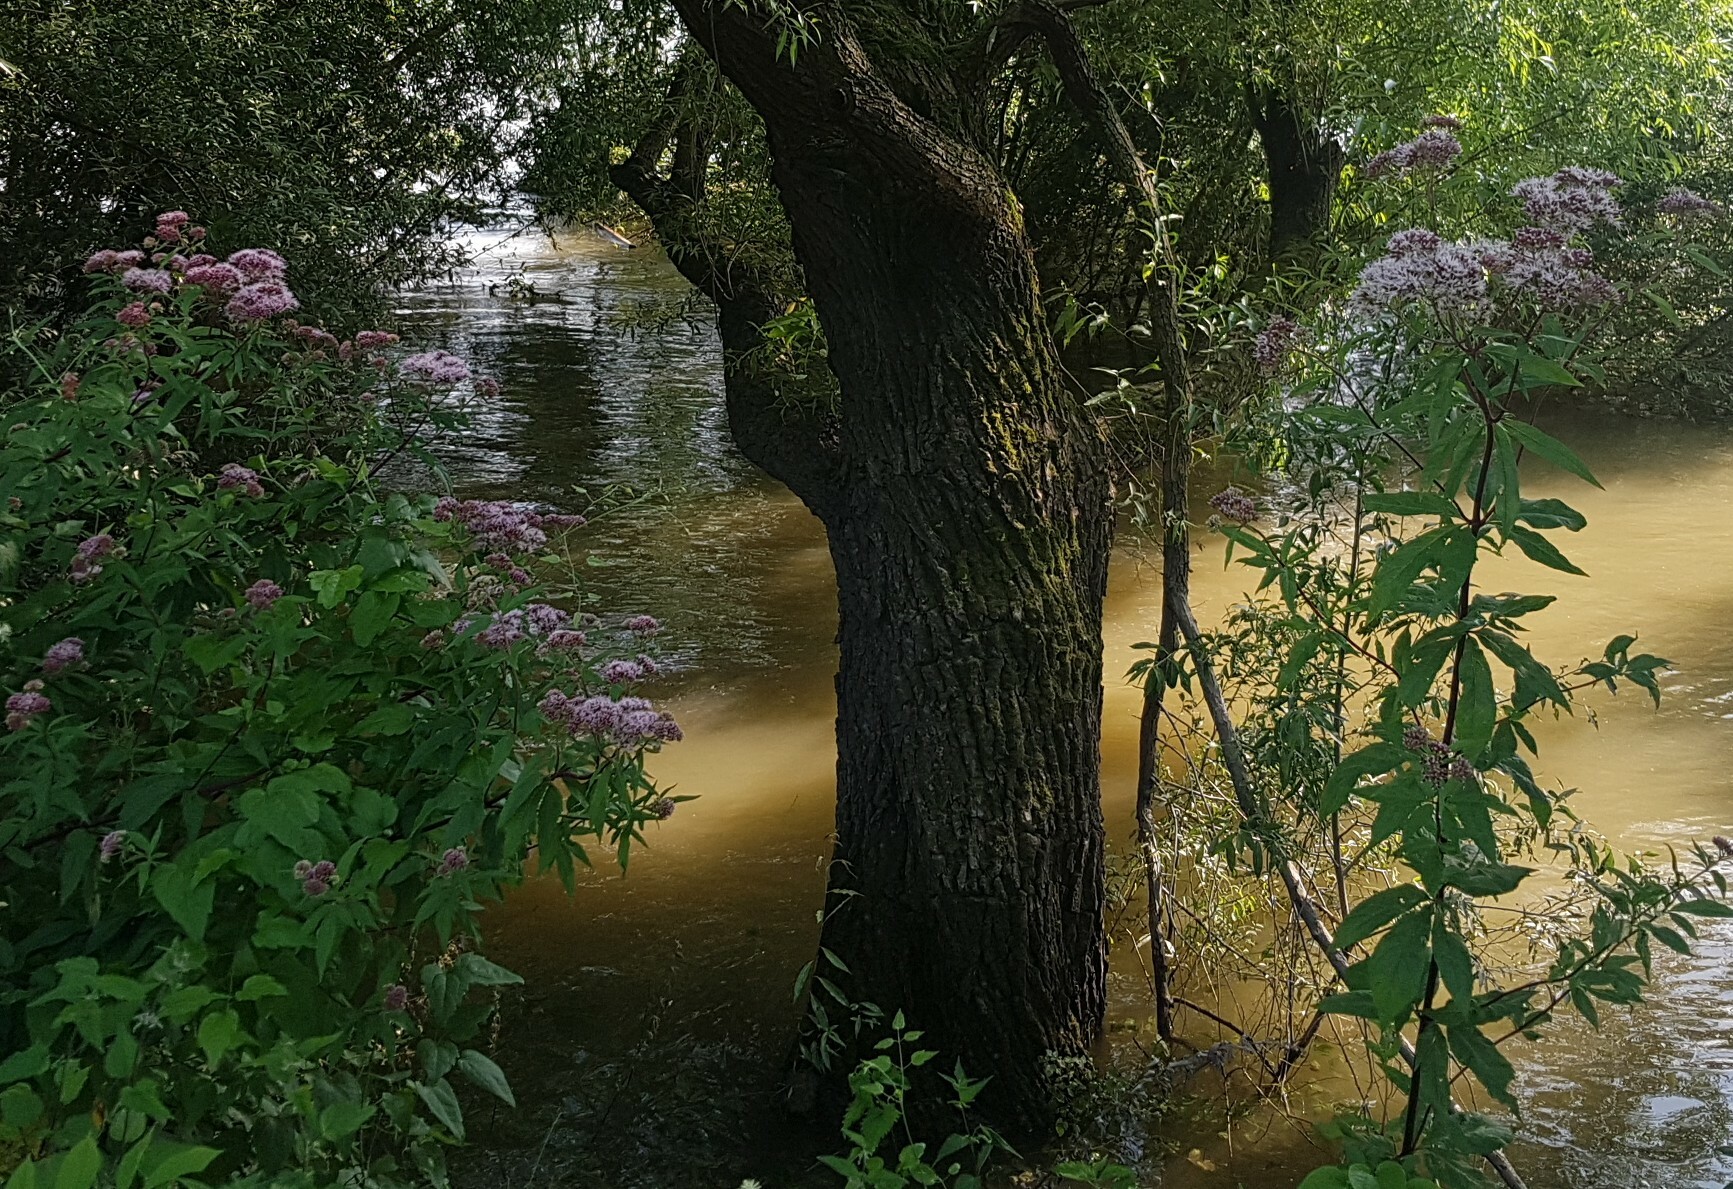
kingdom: Plantae
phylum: Tracheophyta
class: Magnoliopsida
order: Asterales
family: Asteraceae
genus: Eupatorium
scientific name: Eupatorium cannabinum
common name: Hemp-agrimony
